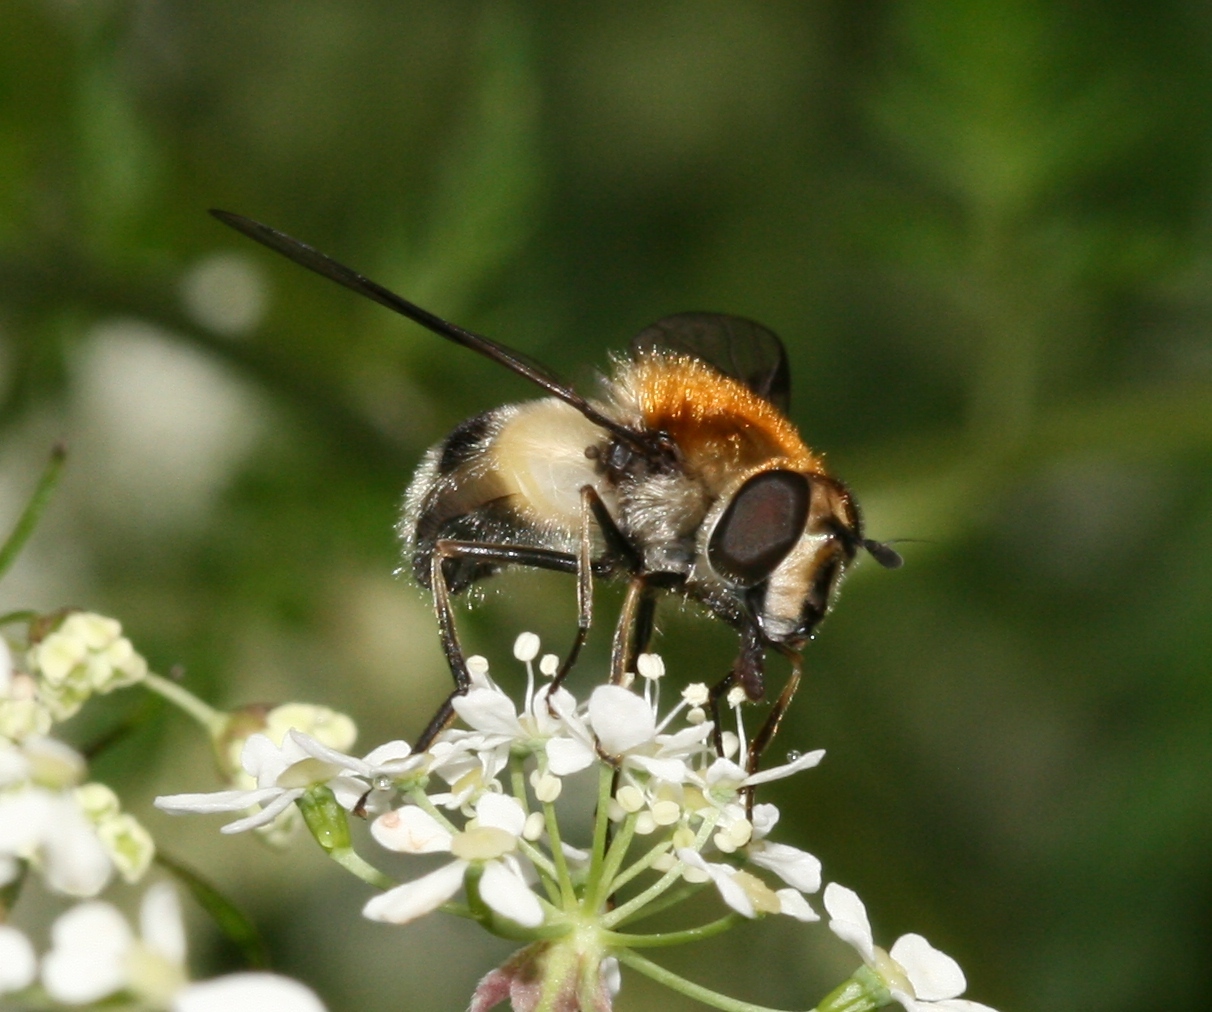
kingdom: Animalia
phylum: Arthropoda
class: Insecta
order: Diptera
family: Syrphidae
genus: Leucozona
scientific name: Leucozona lucorum
